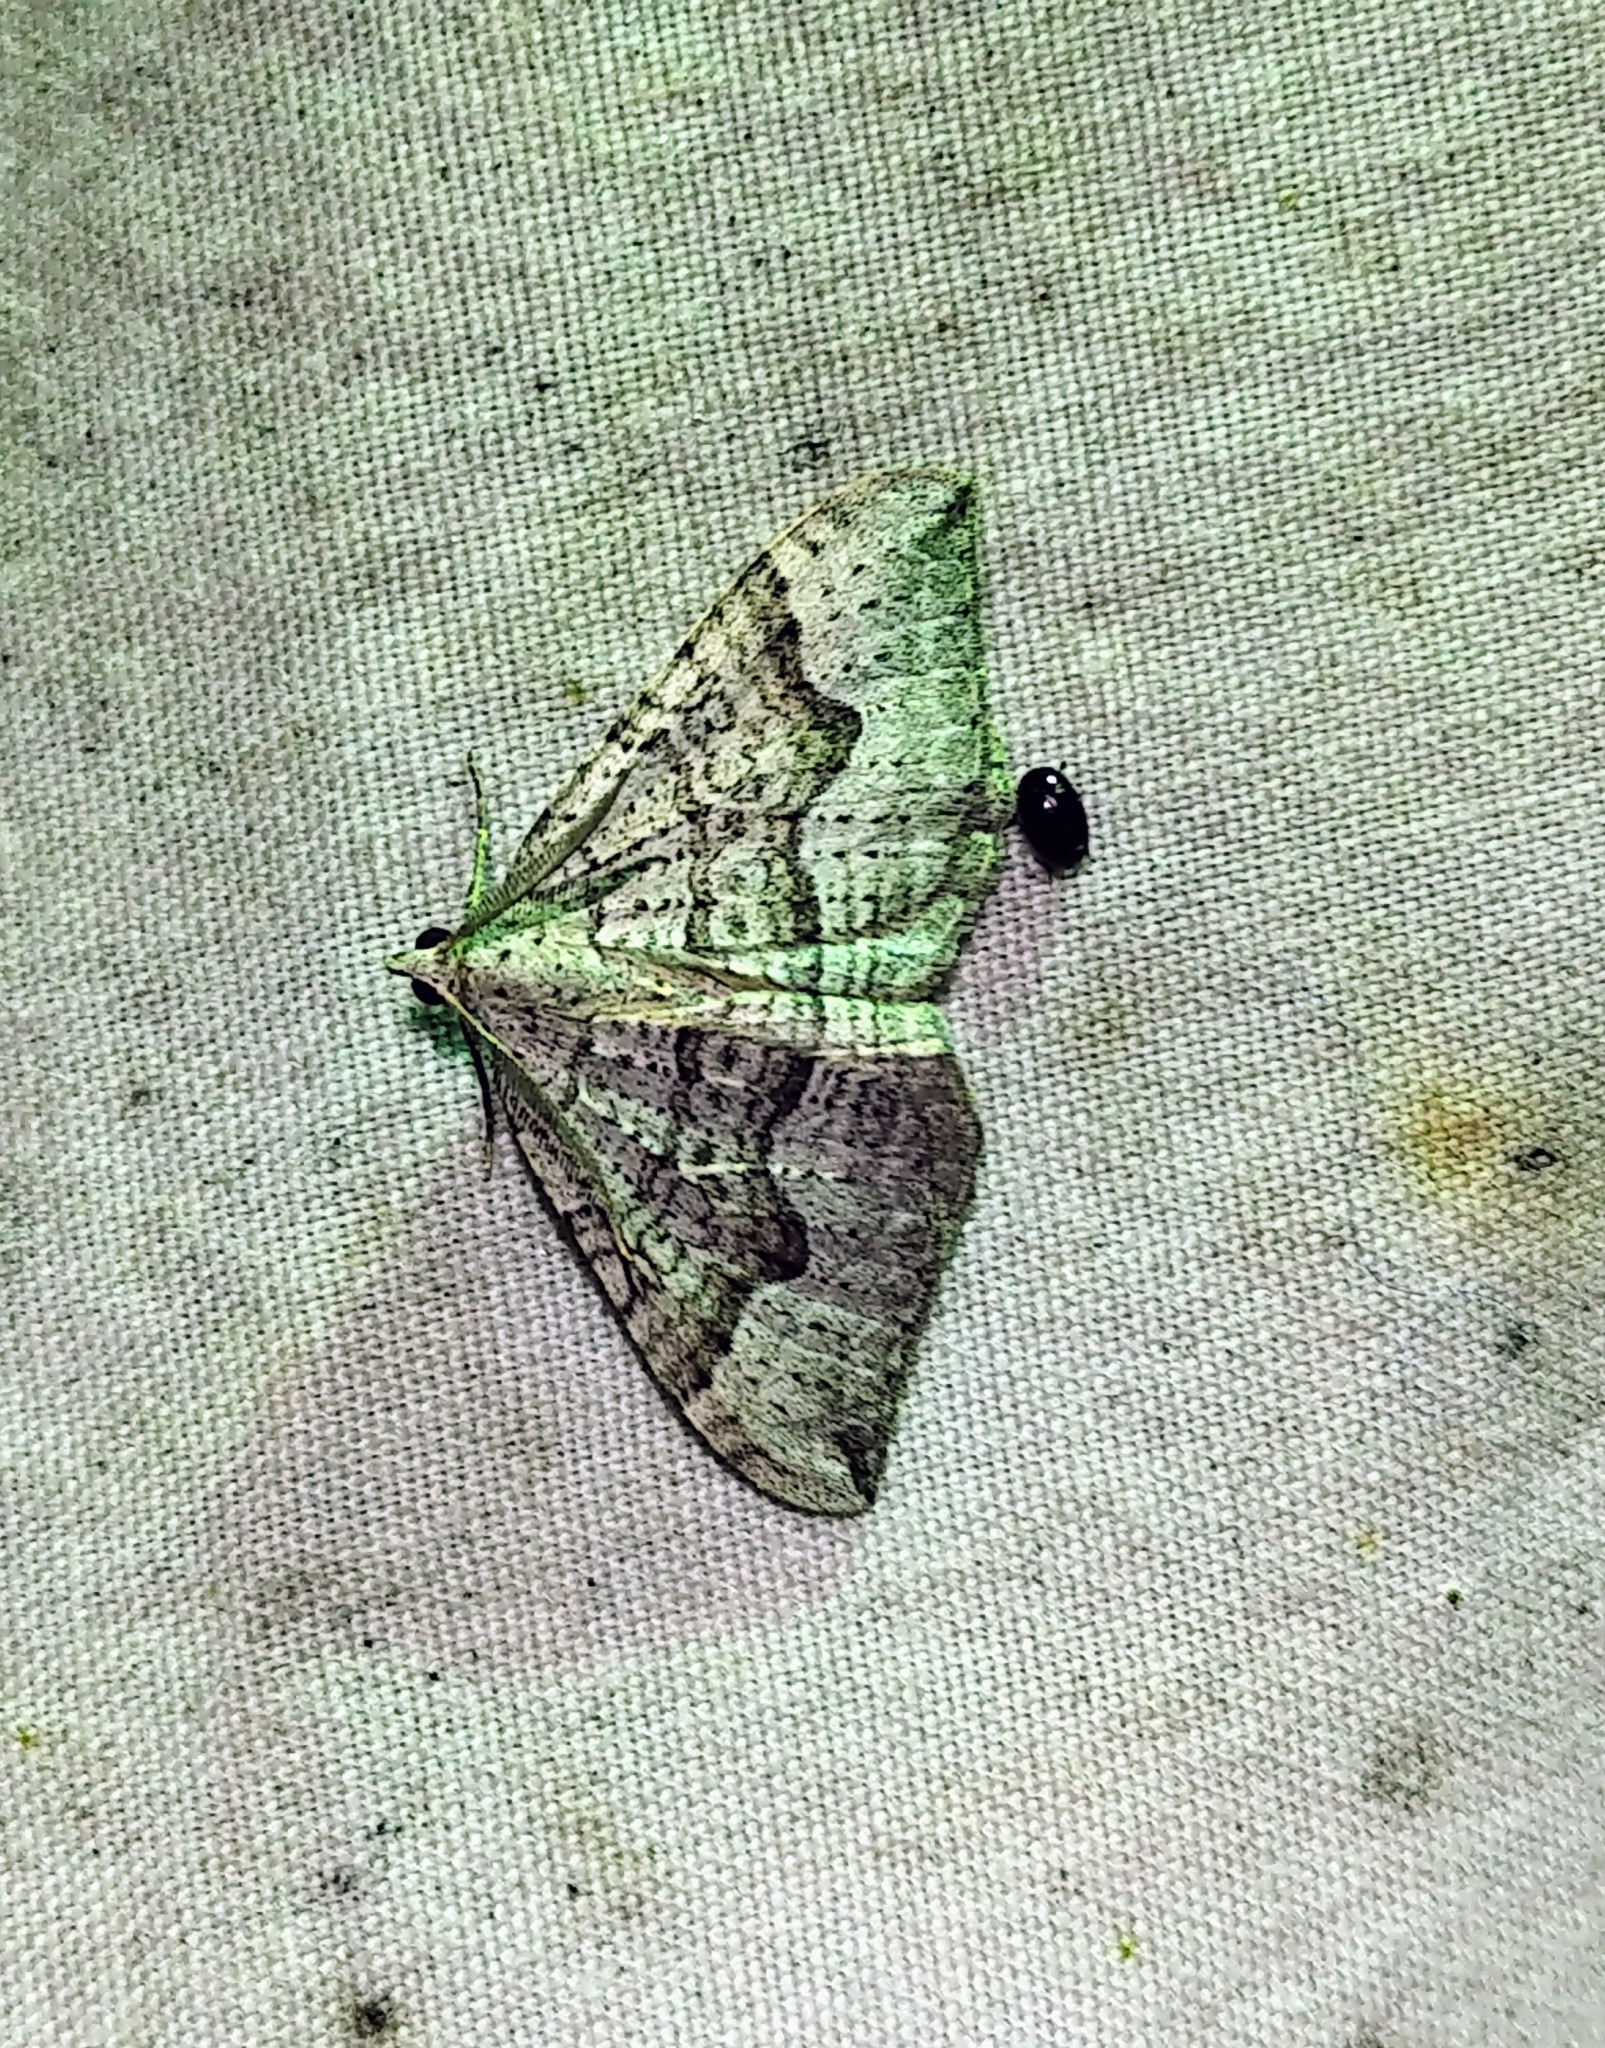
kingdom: Animalia
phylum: Arthropoda
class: Insecta
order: Lepidoptera
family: Geometridae
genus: Zenophleps
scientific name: Zenophleps alpinata
